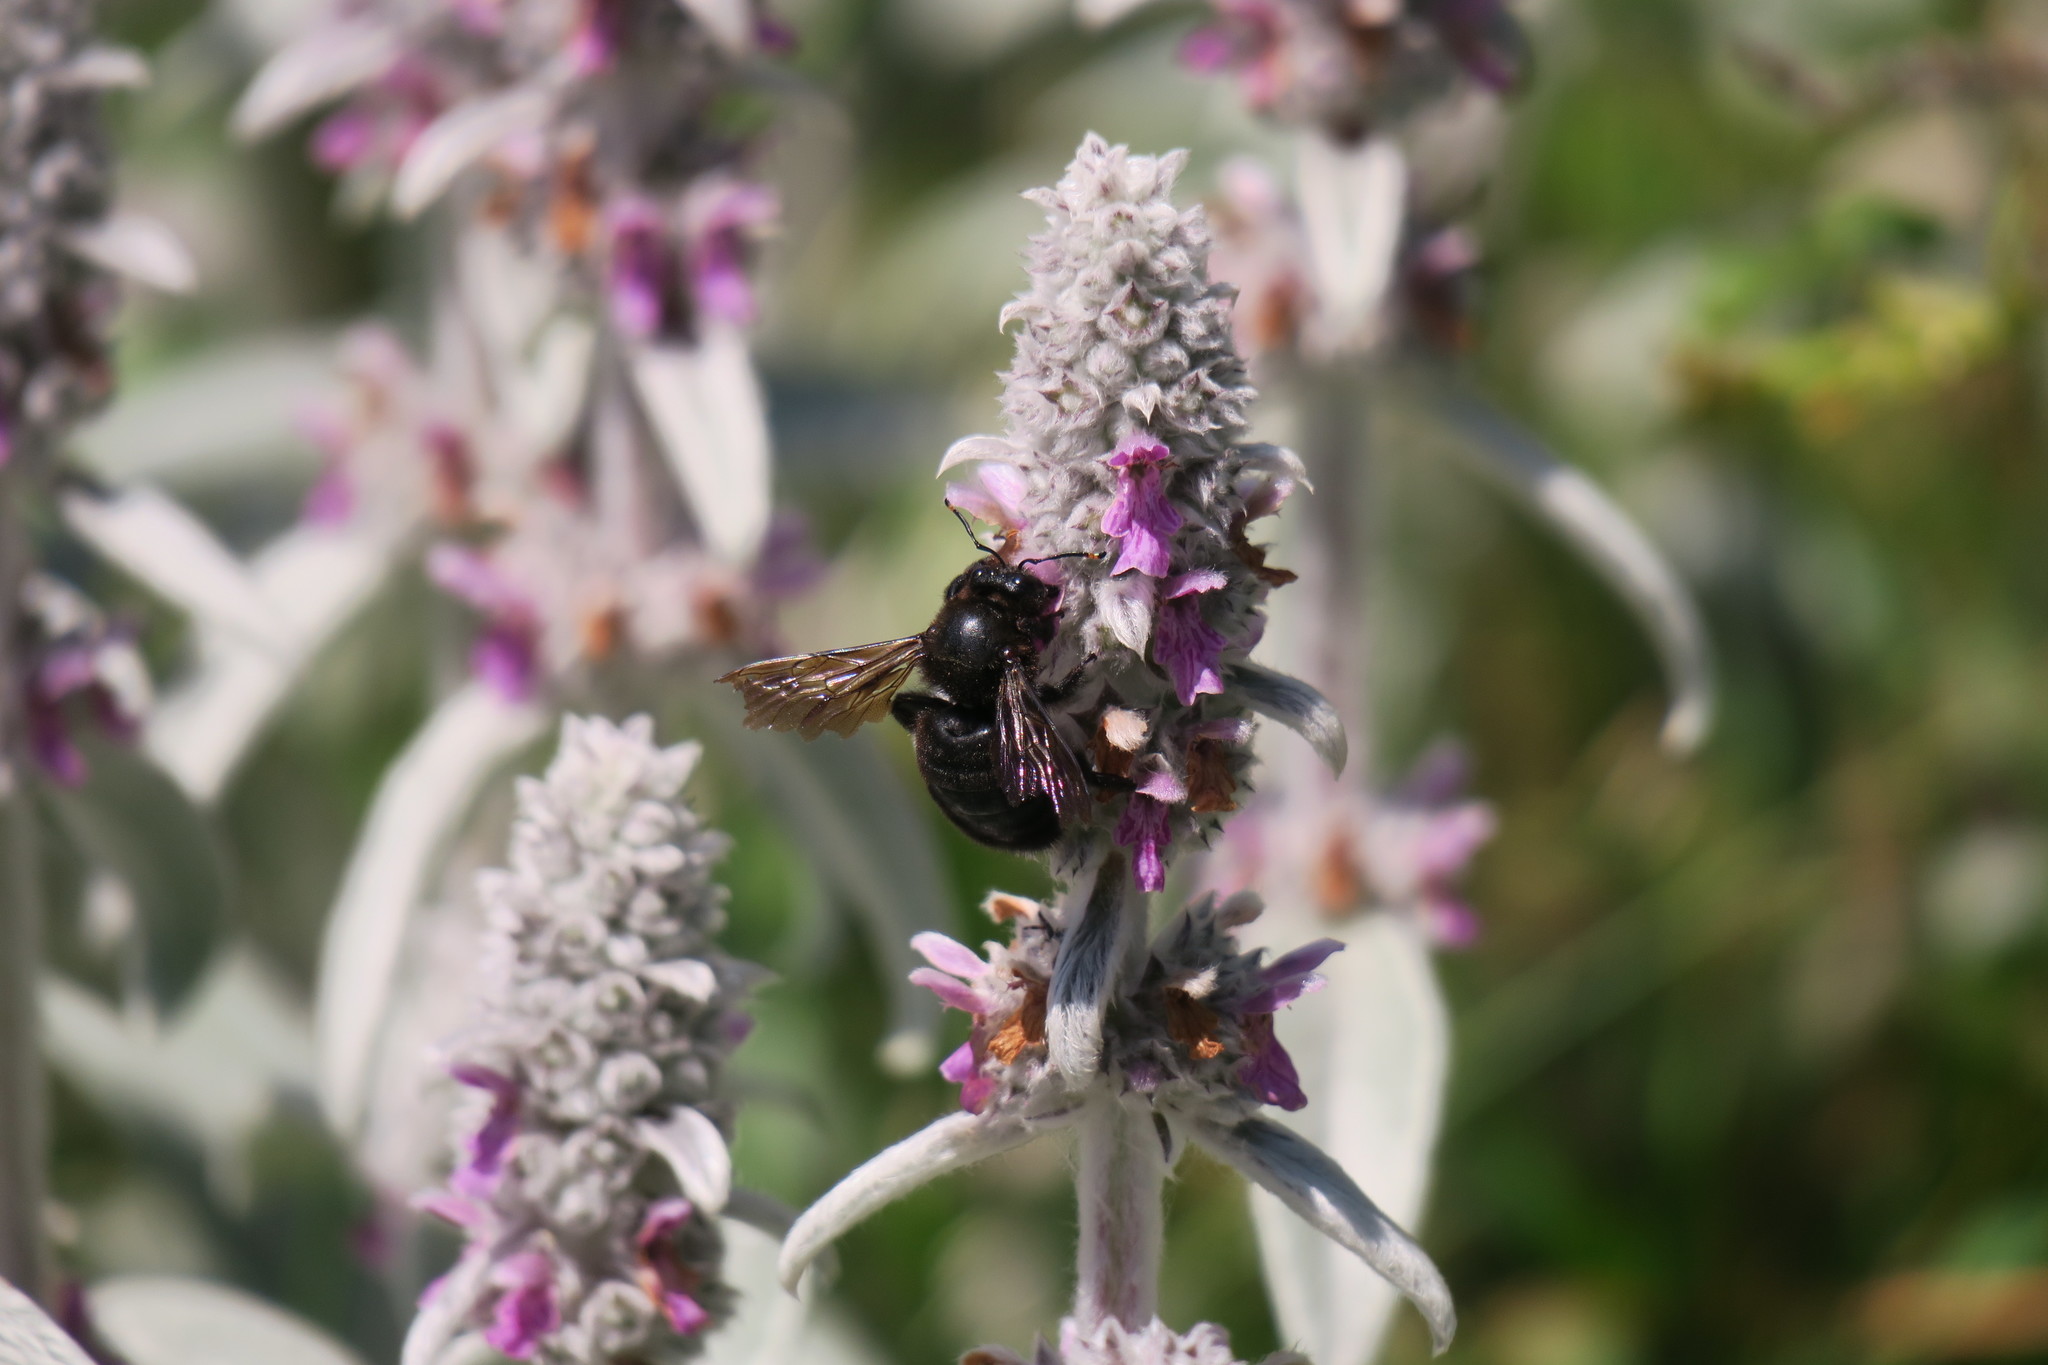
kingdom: Animalia
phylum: Arthropoda
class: Insecta
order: Hymenoptera
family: Apidae
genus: Xylocopa
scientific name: Xylocopa violacea
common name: Violet carpenter bee
